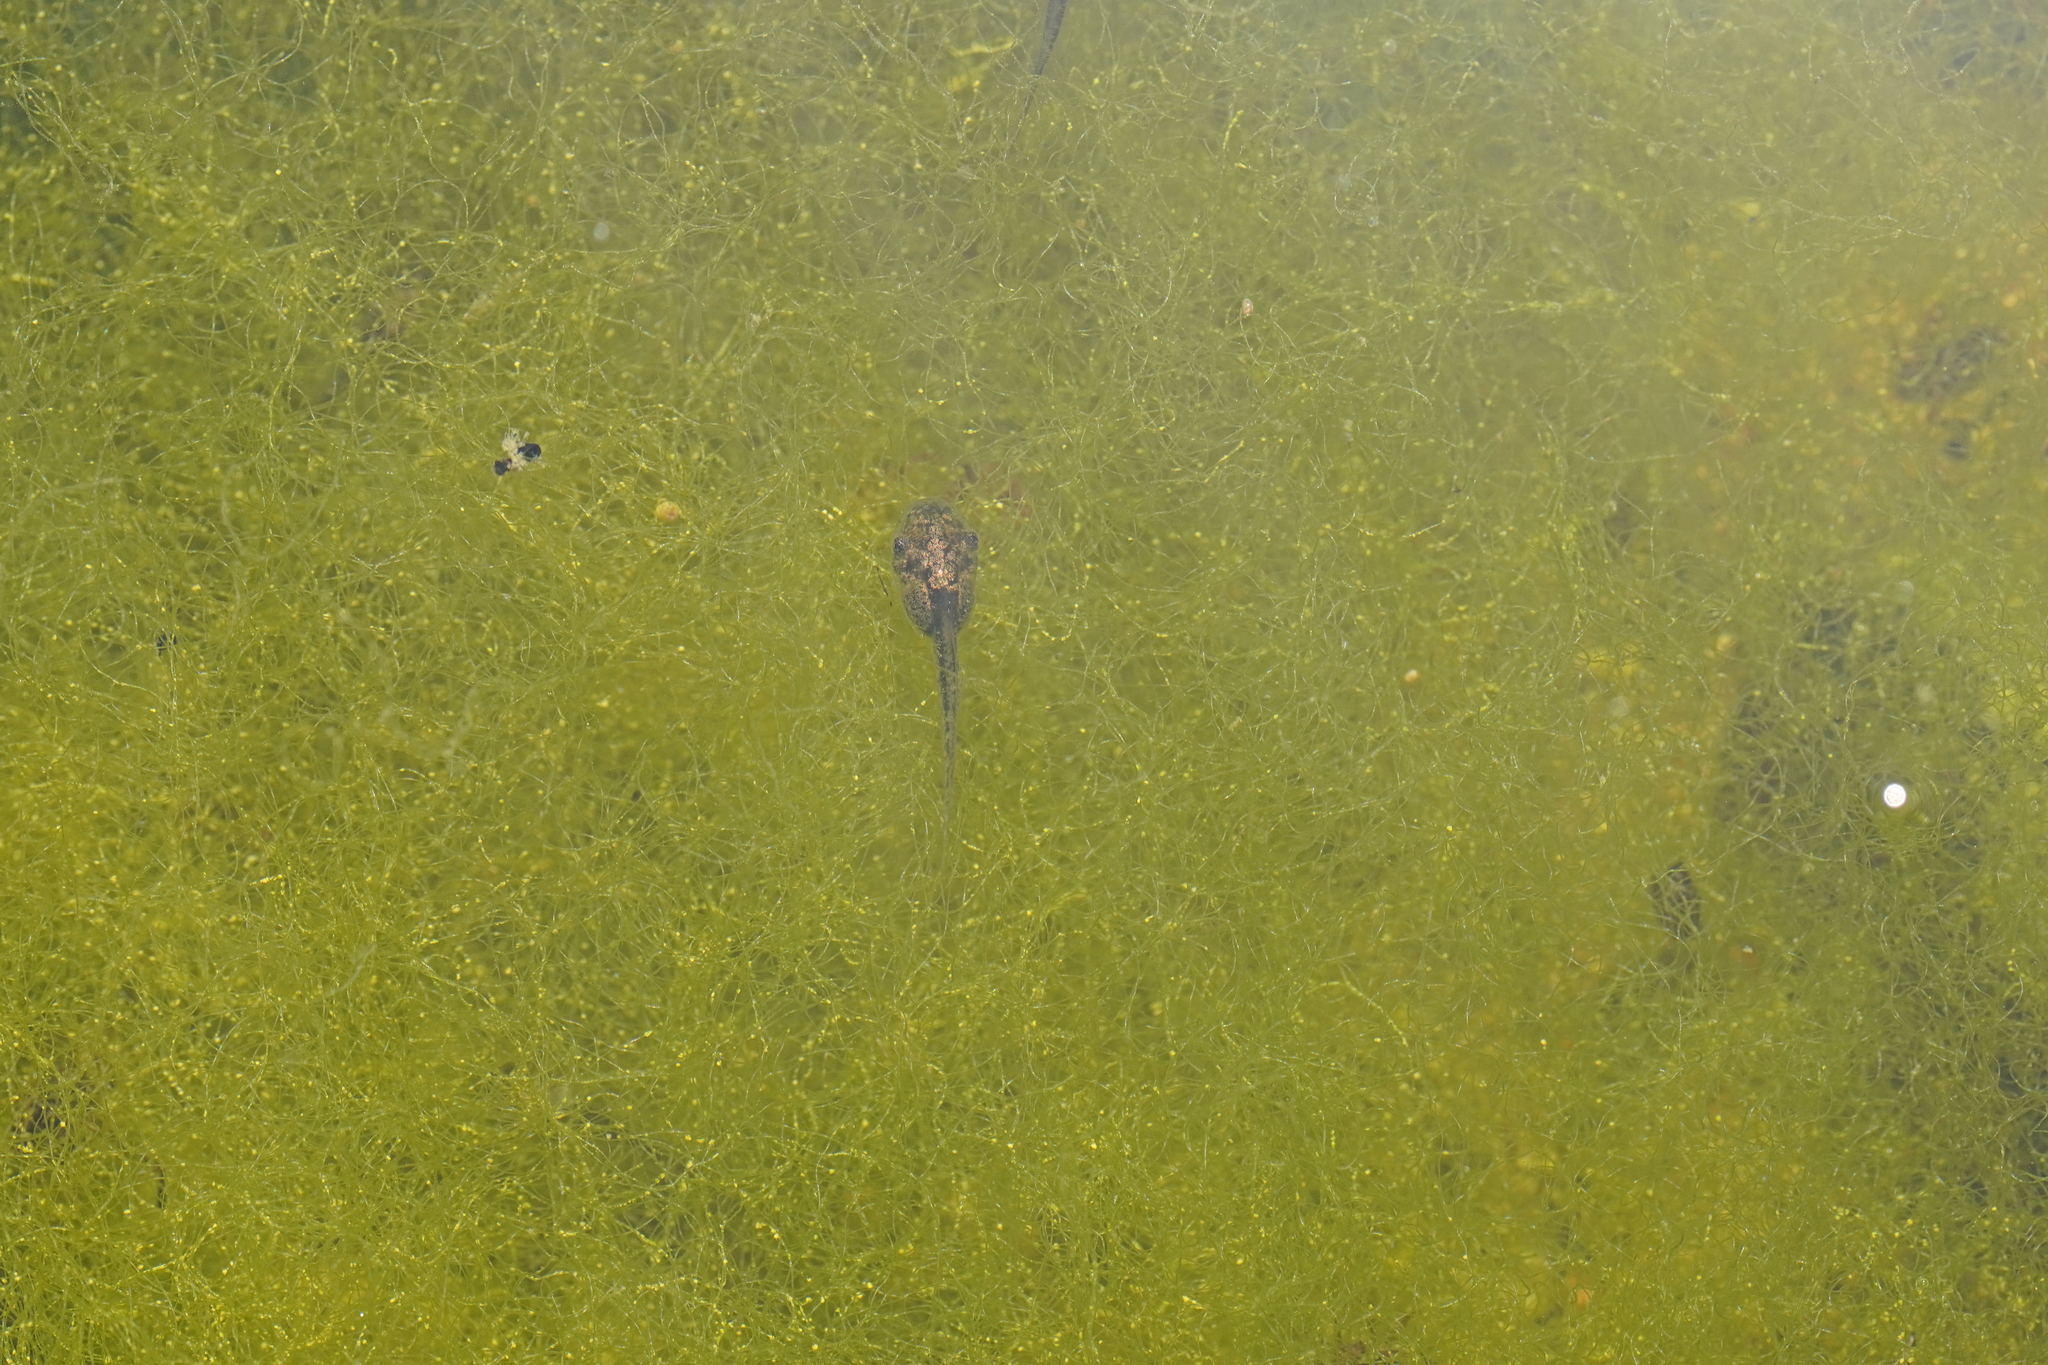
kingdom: Animalia
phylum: Chordata
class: Amphibia
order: Anura
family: Hylidae
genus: Hyla
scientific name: Hyla sarda
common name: Sardinian tree frog
